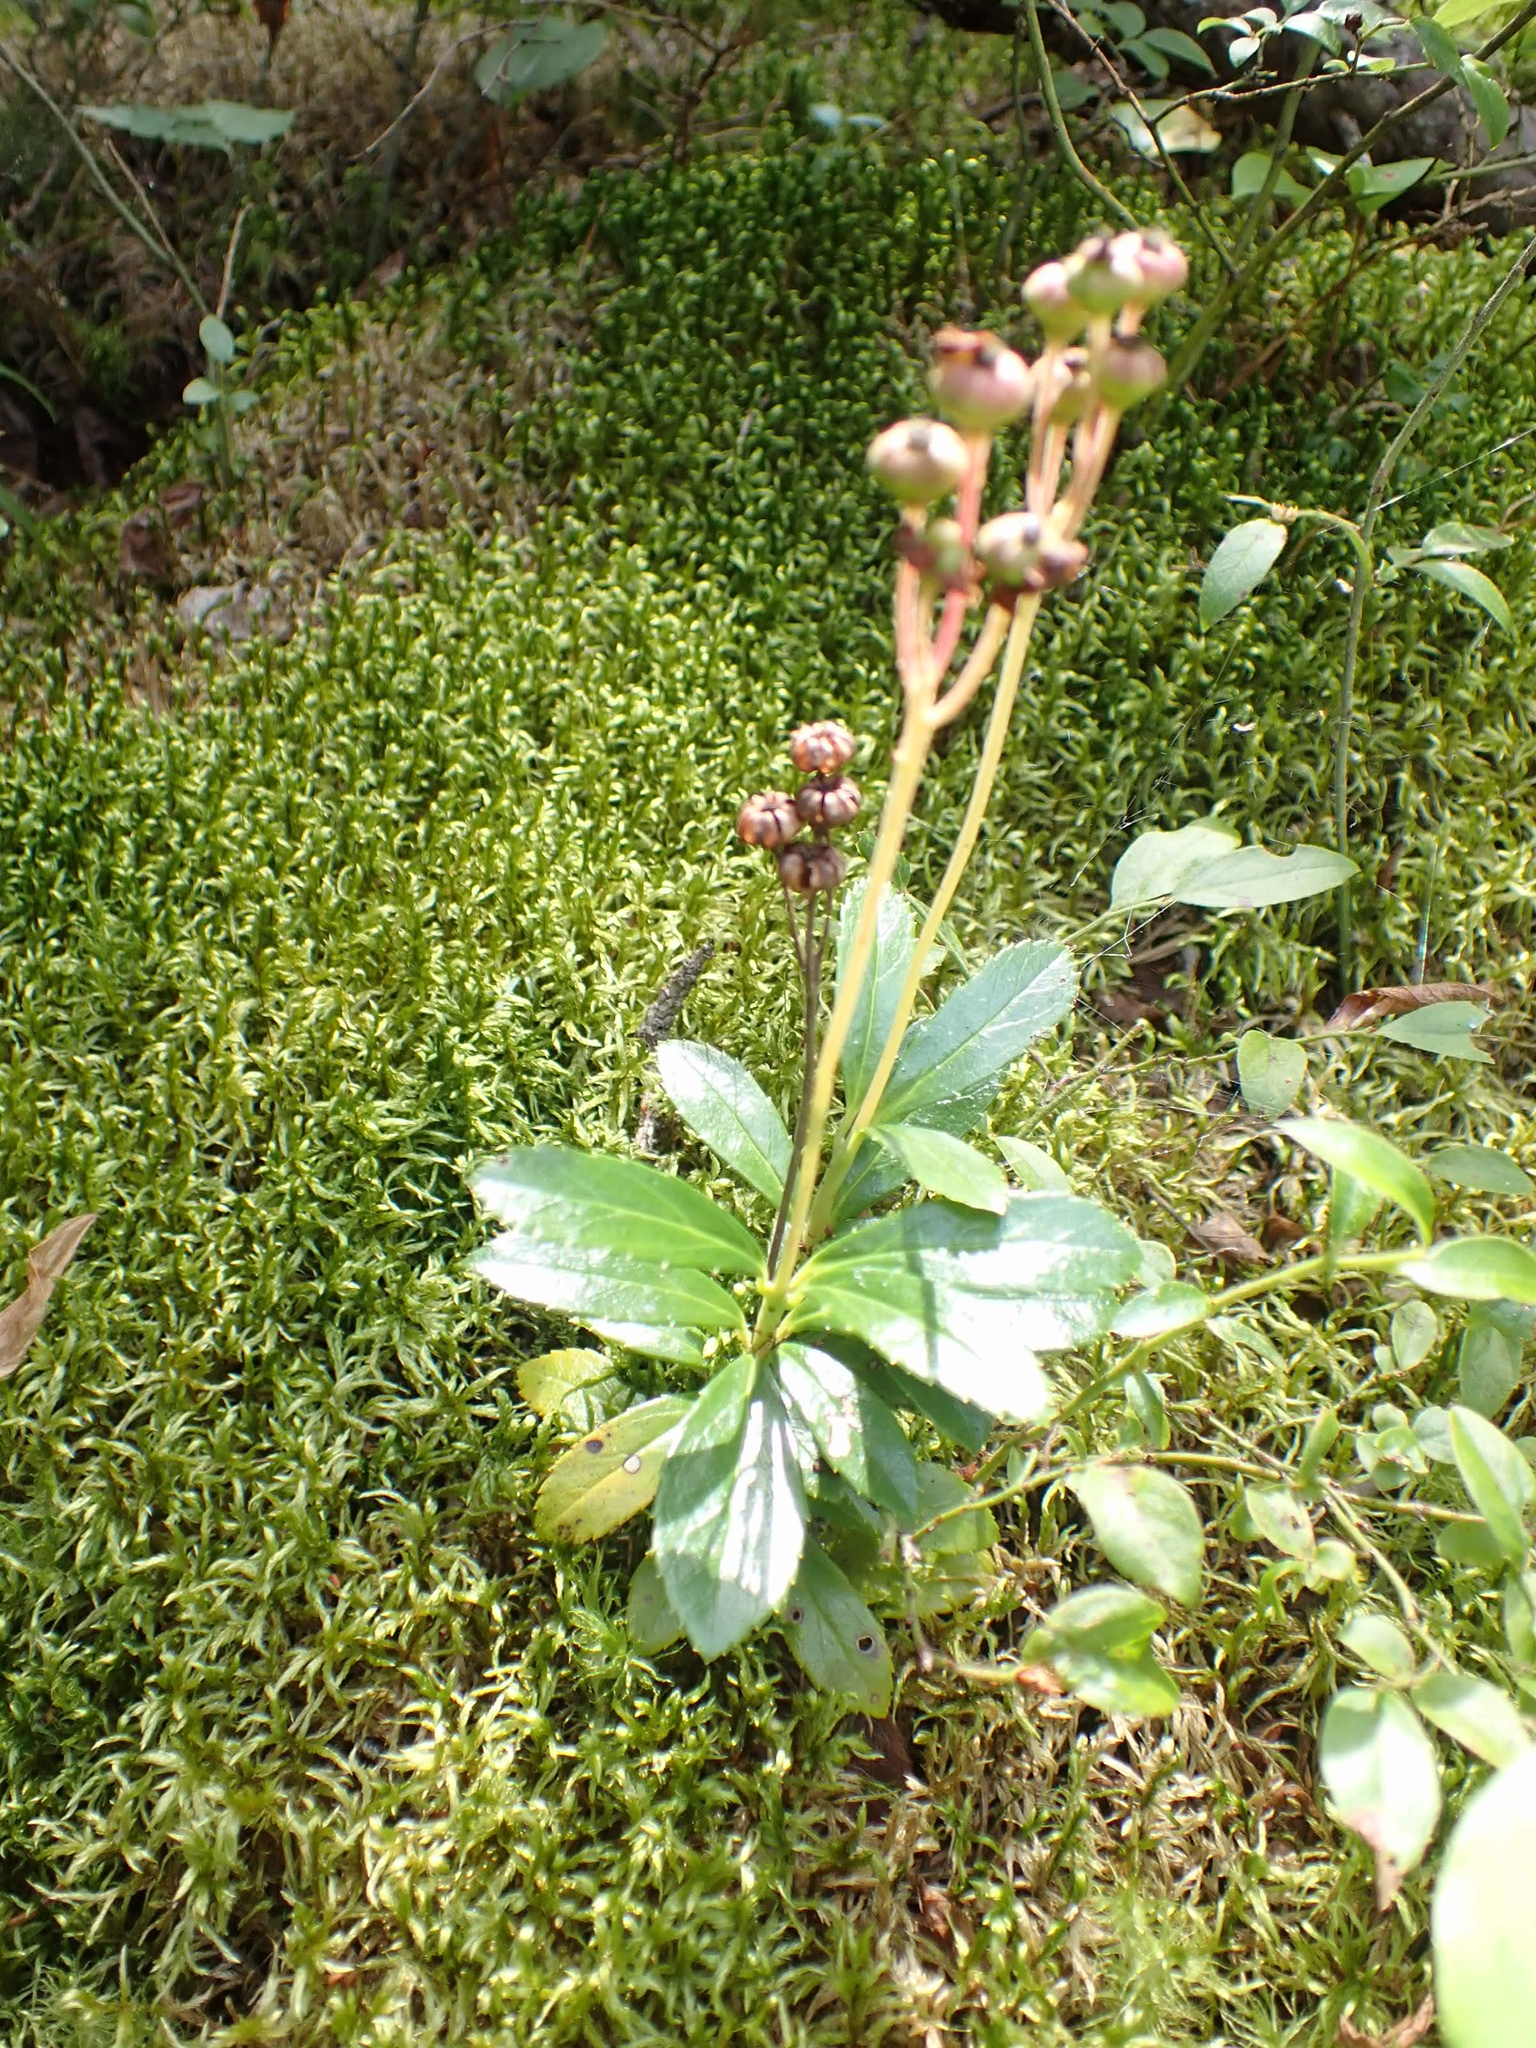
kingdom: Plantae
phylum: Tracheophyta
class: Magnoliopsida
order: Ericales
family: Ericaceae
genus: Chimaphila
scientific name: Chimaphila umbellata
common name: Pipsissewa
